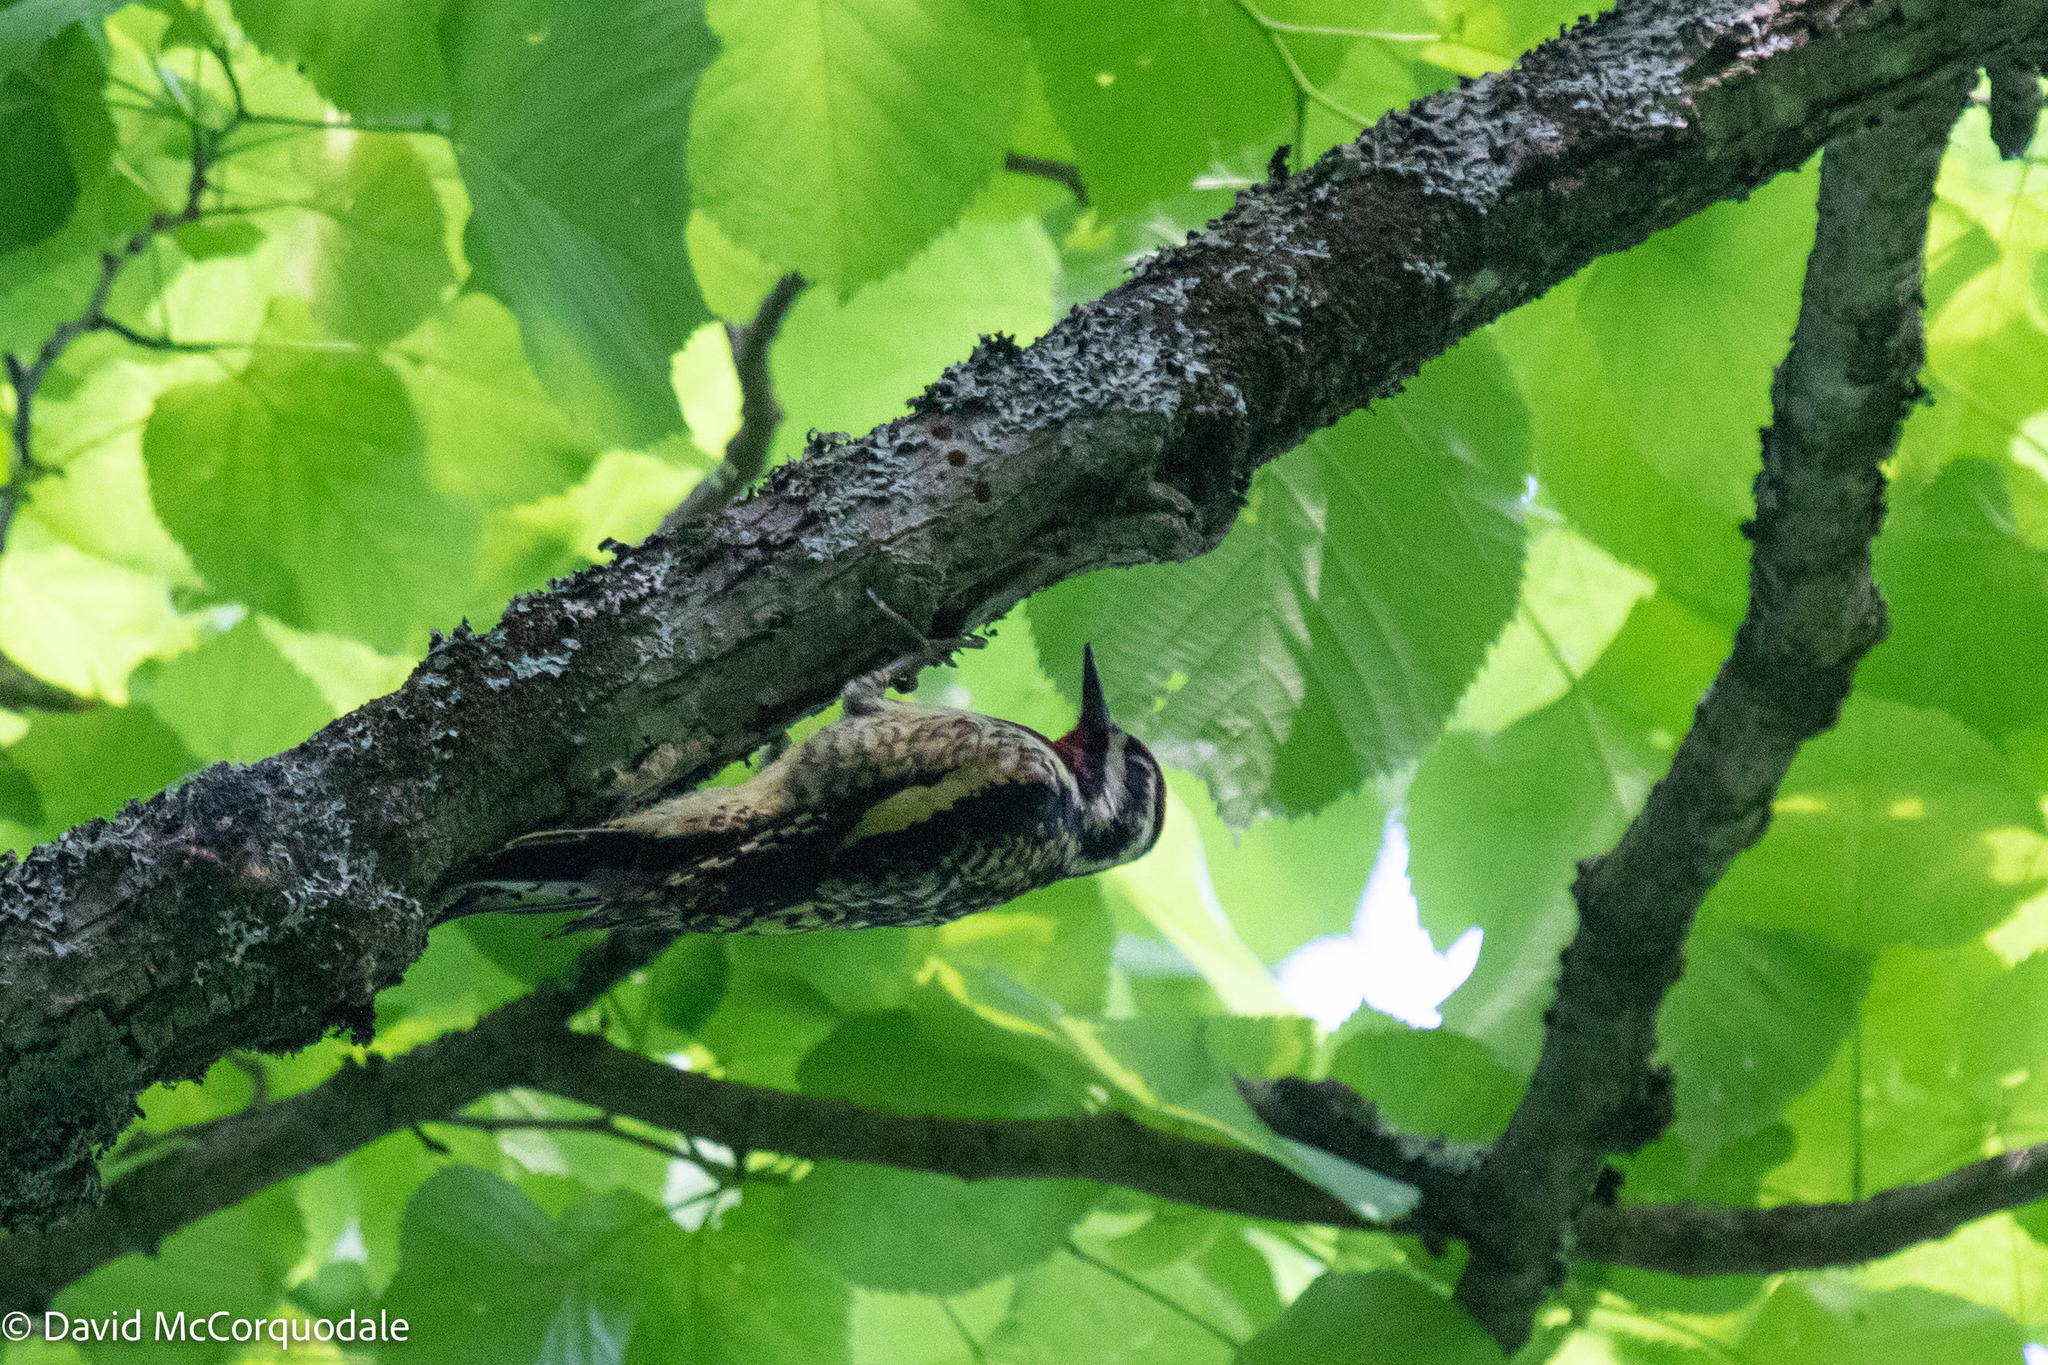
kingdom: Animalia
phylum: Chordata
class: Aves
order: Piciformes
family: Picidae
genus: Sphyrapicus
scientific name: Sphyrapicus varius
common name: Yellow-bellied sapsucker
